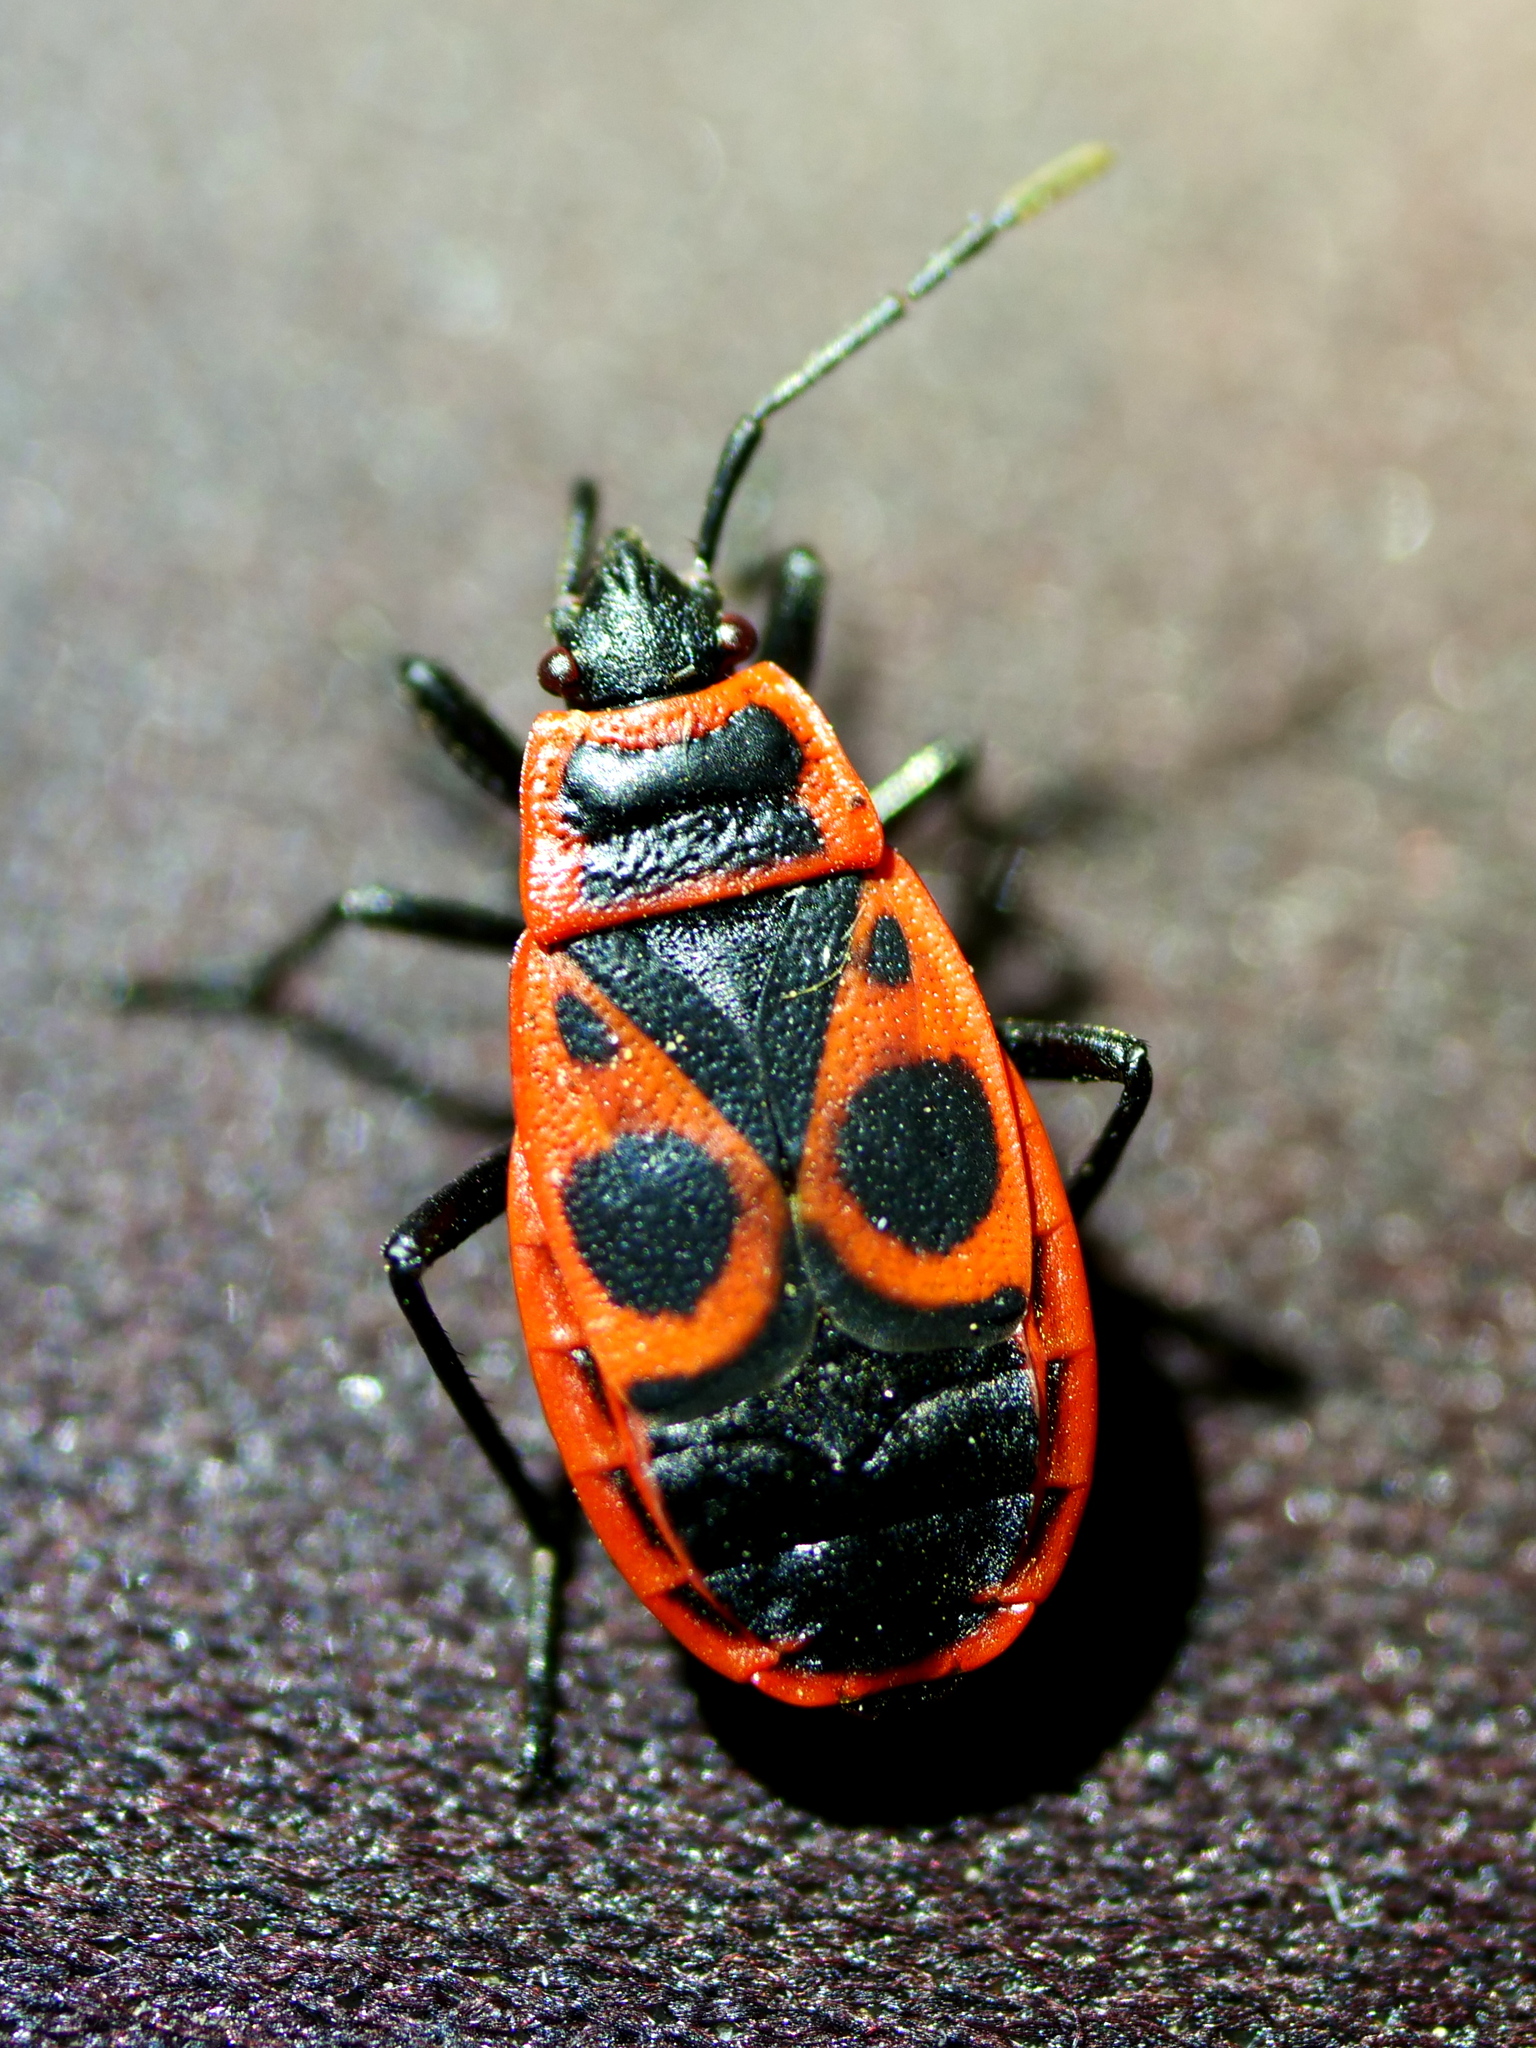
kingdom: Animalia
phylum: Arthropoda
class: Insecta
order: Hemiptera
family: Pyrrhocoridae
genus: Pyrrhocoris
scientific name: Pyrrhocoris apterus
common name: Firebug
